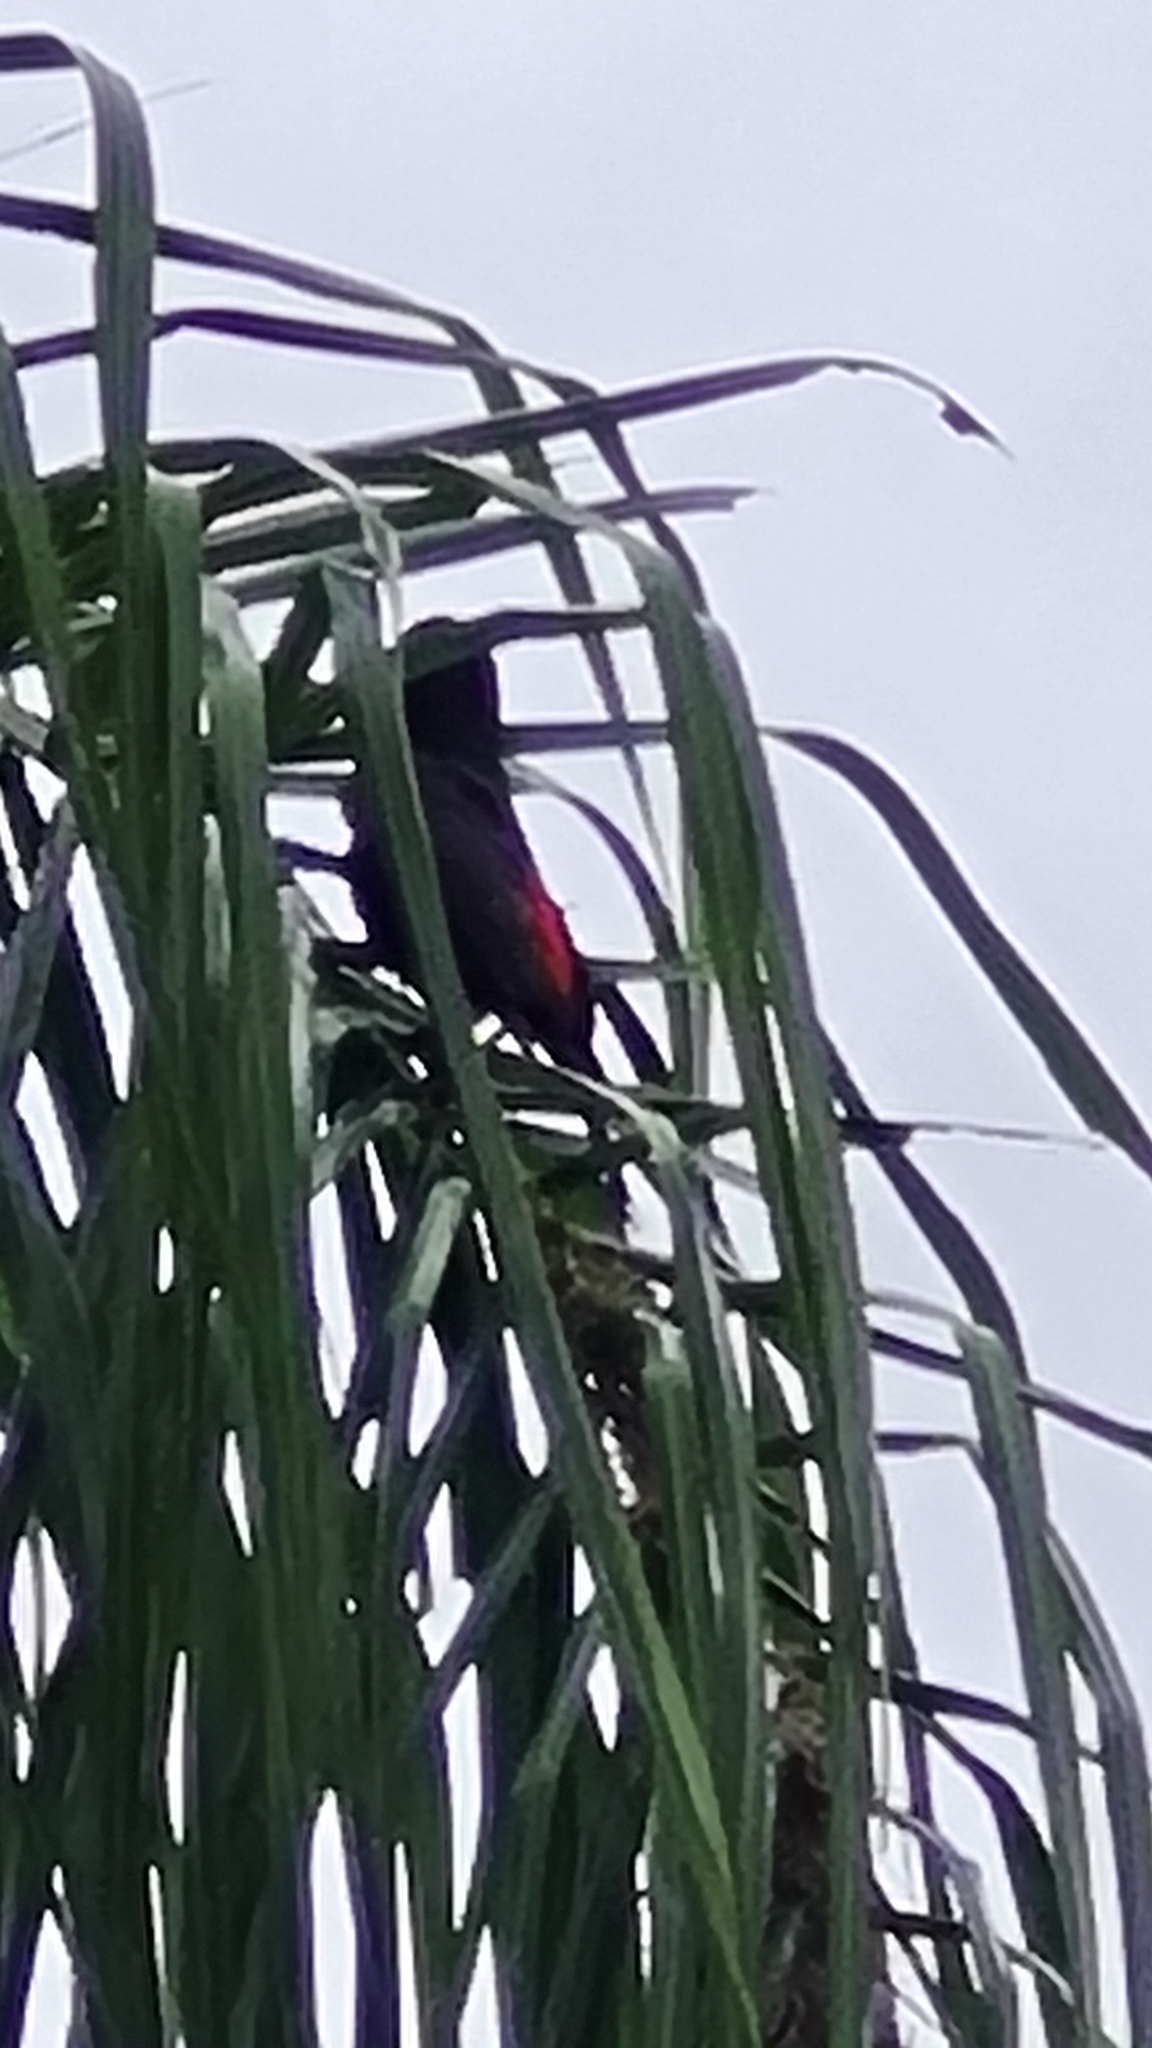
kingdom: Animalia
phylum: Chordata
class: Aves
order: Passeriformes
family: Icteridae
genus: Cacicus
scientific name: Cacicus haemorrhous
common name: Red-rumped cacique
